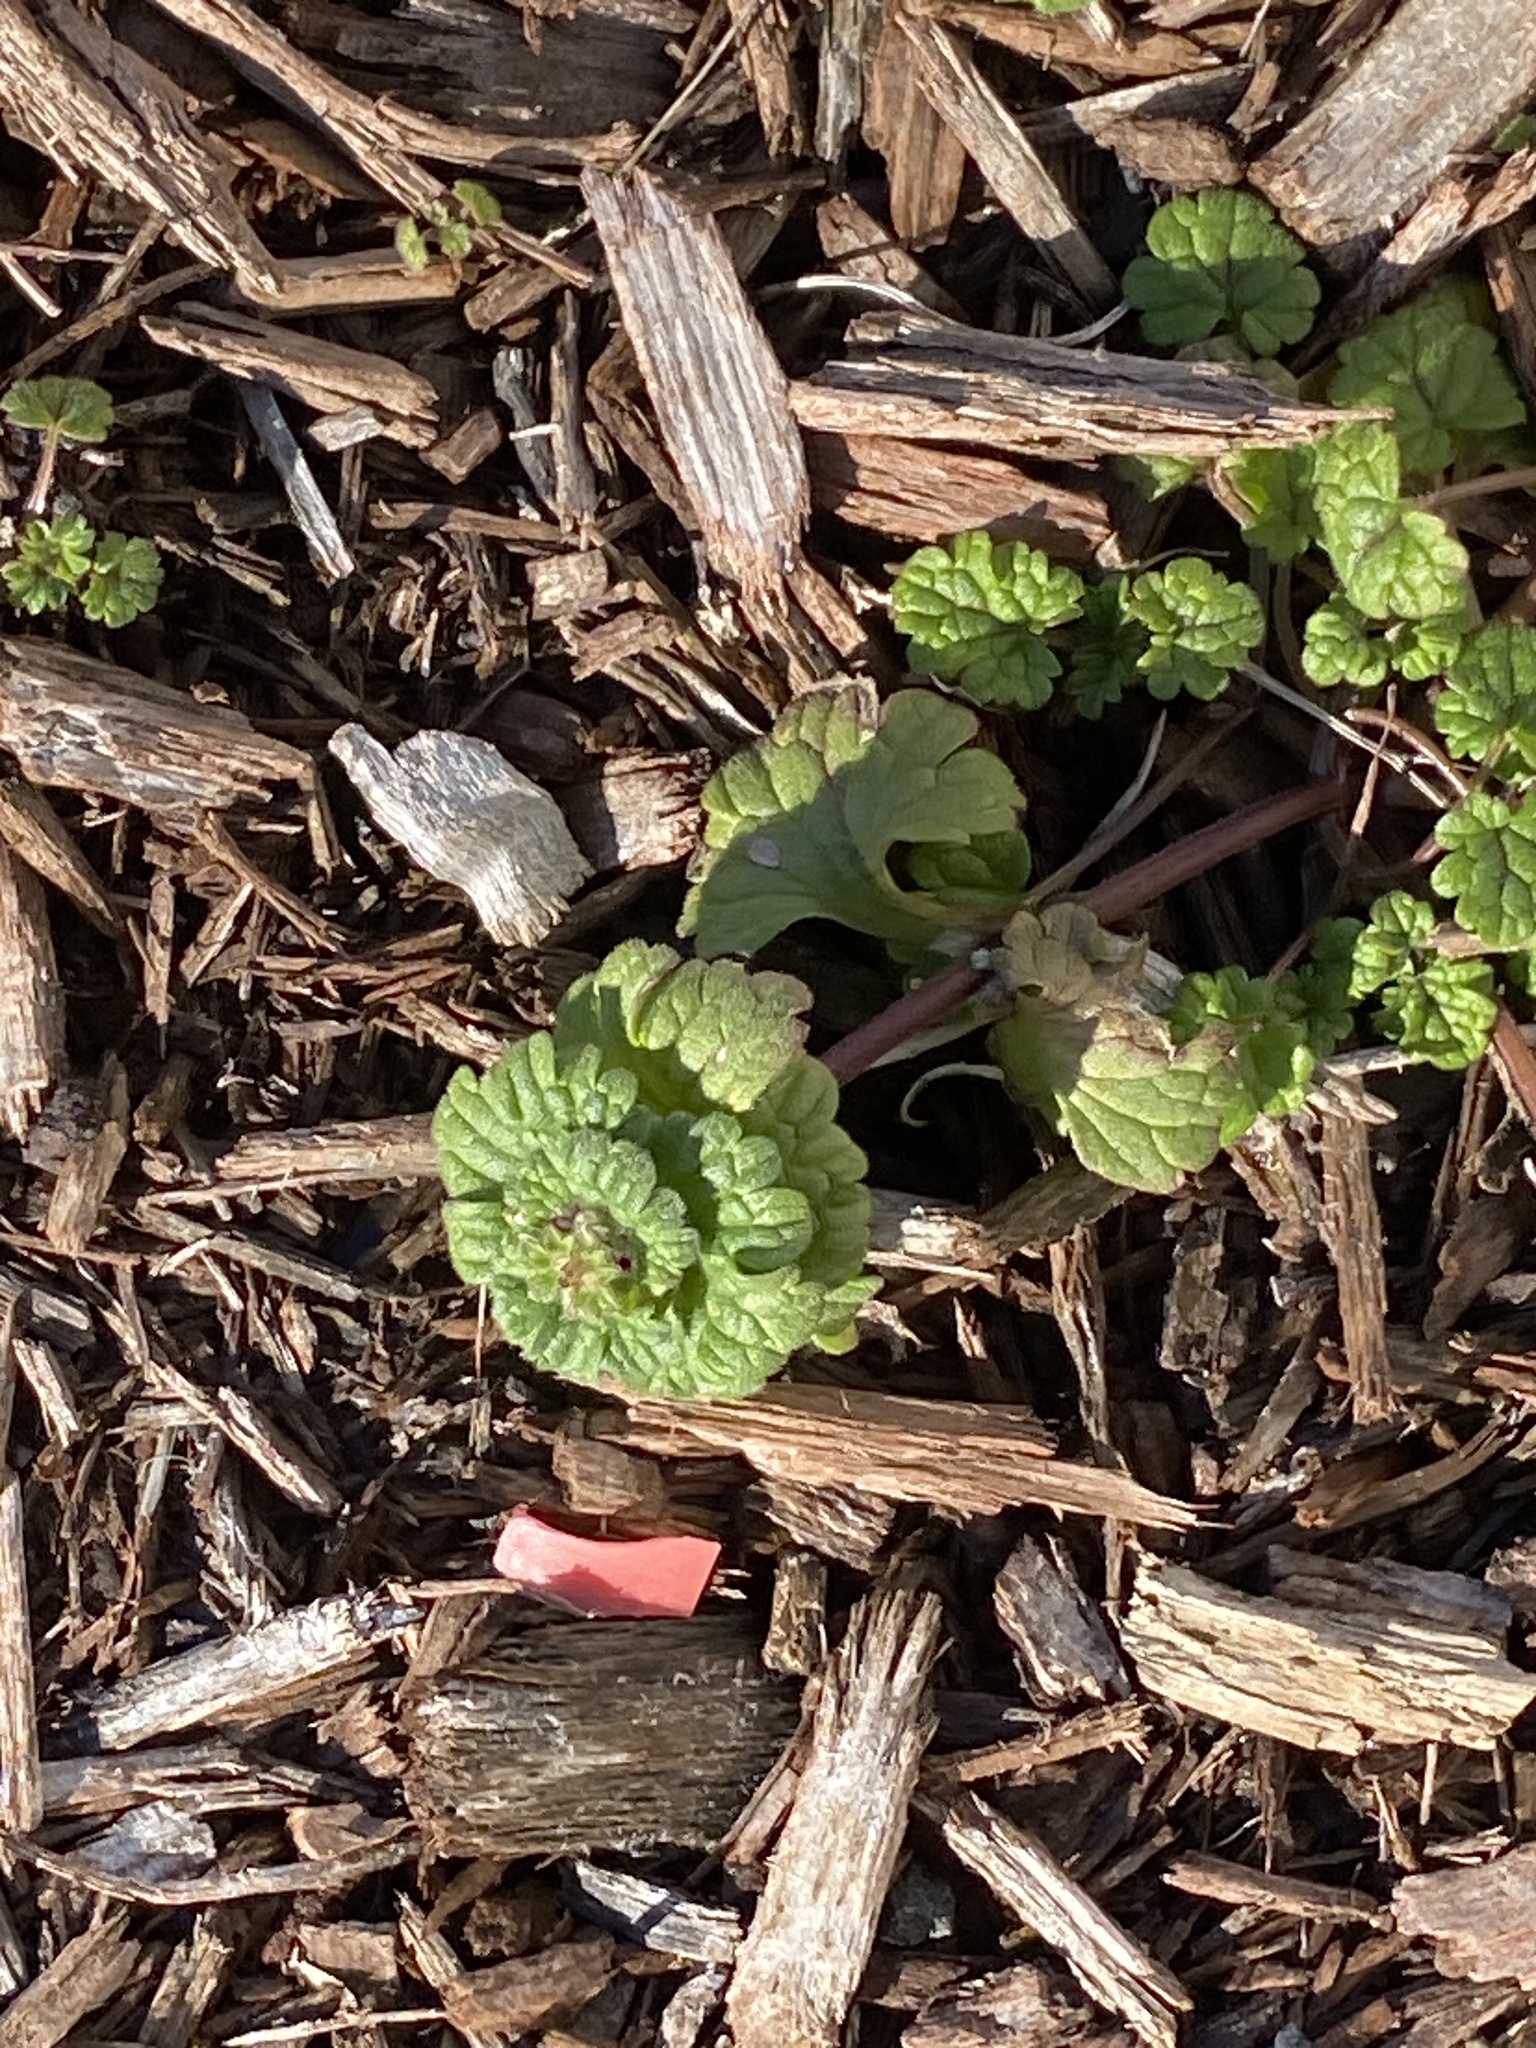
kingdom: Plantae
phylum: Tracheophyta
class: Magnoliopsida
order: Lamiales
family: Lamiaceae
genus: Lamium
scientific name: Lamium amplexicaule
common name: Henbit dead-nettle
